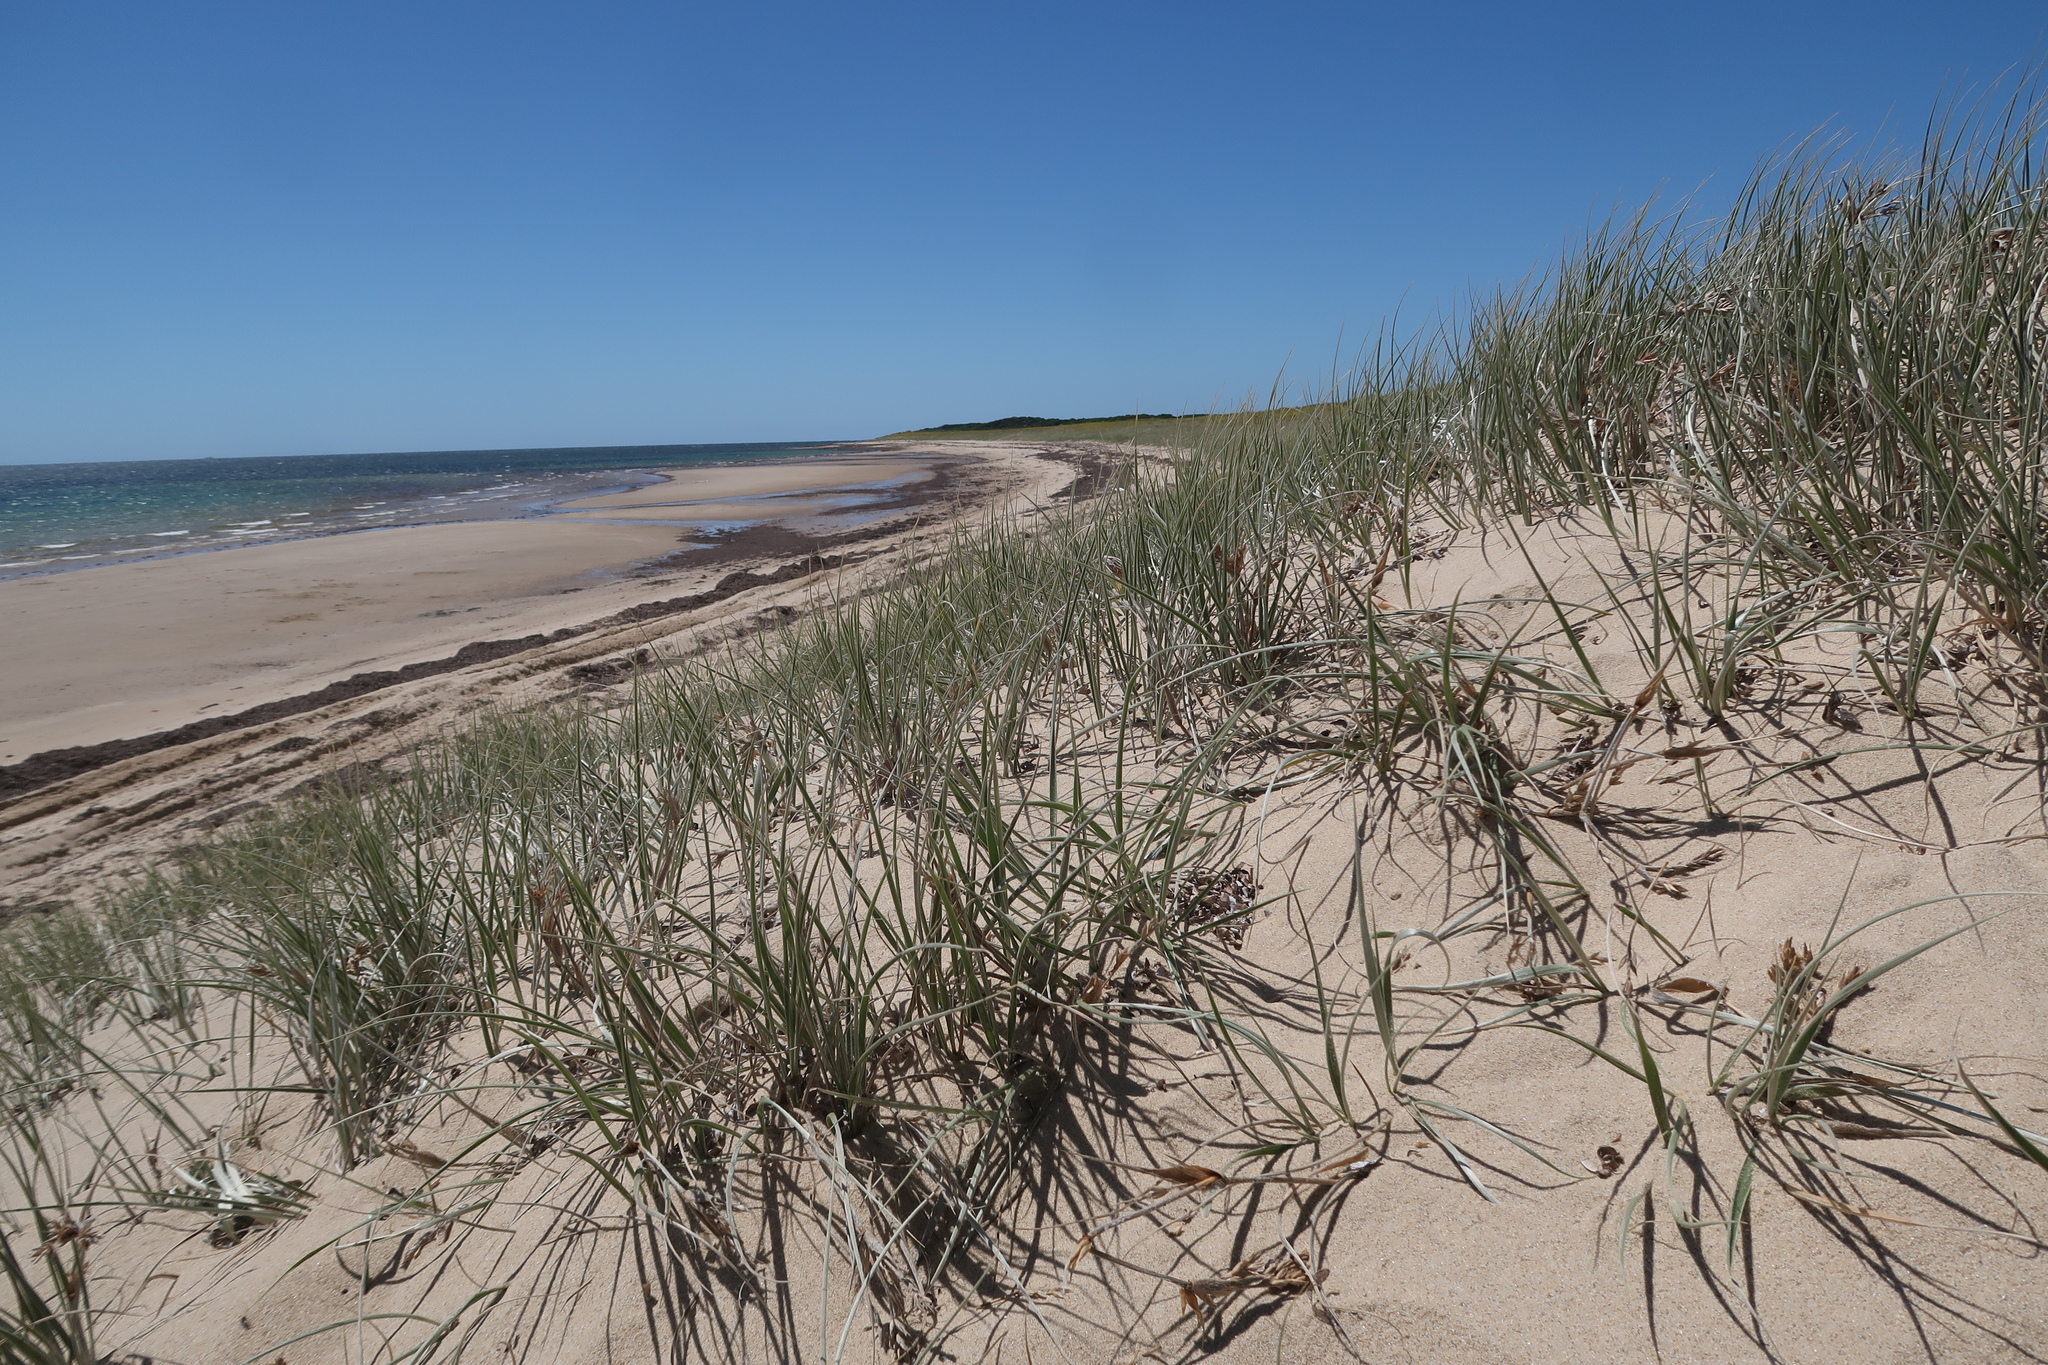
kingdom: Plantae
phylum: Tracheophyta
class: Liliopsida
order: Poales
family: Poaceae
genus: Spinifex
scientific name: Spinifex sericeus
